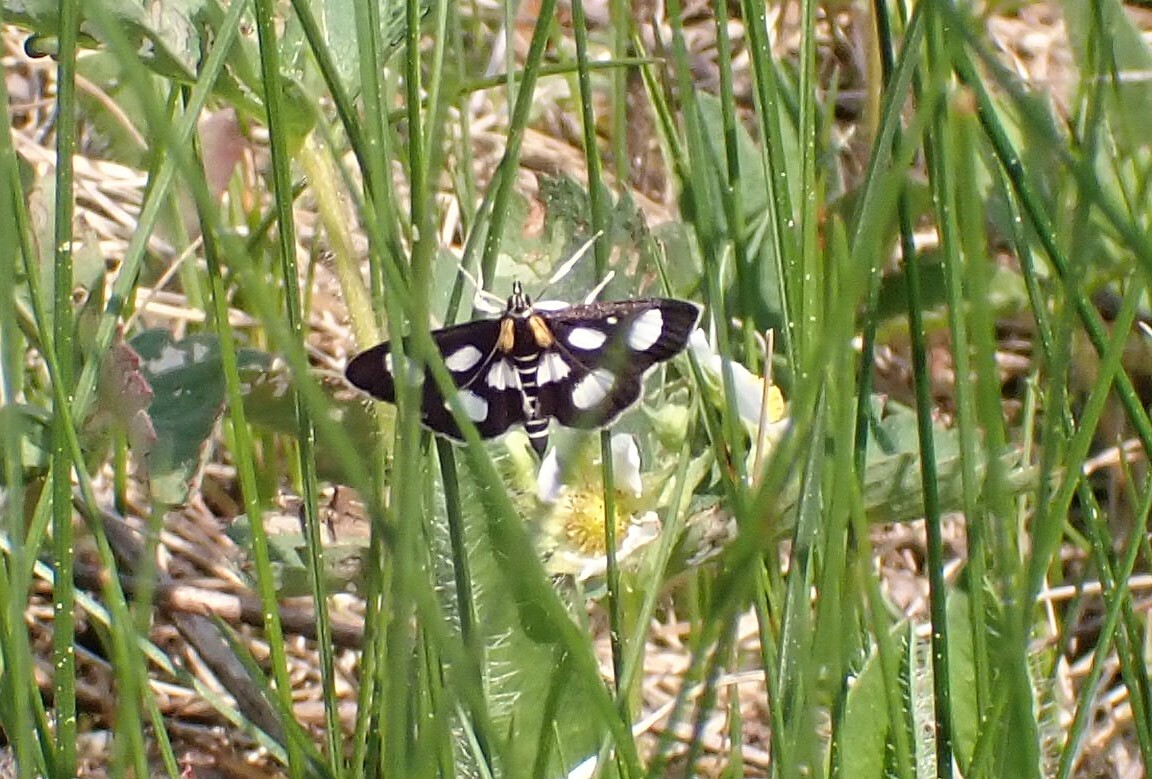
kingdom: Animalia
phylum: Arthropoda
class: Insecta
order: Lepidoptera
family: Crambidae
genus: Anania
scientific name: Anania funebris
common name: White-spotted sable moth
